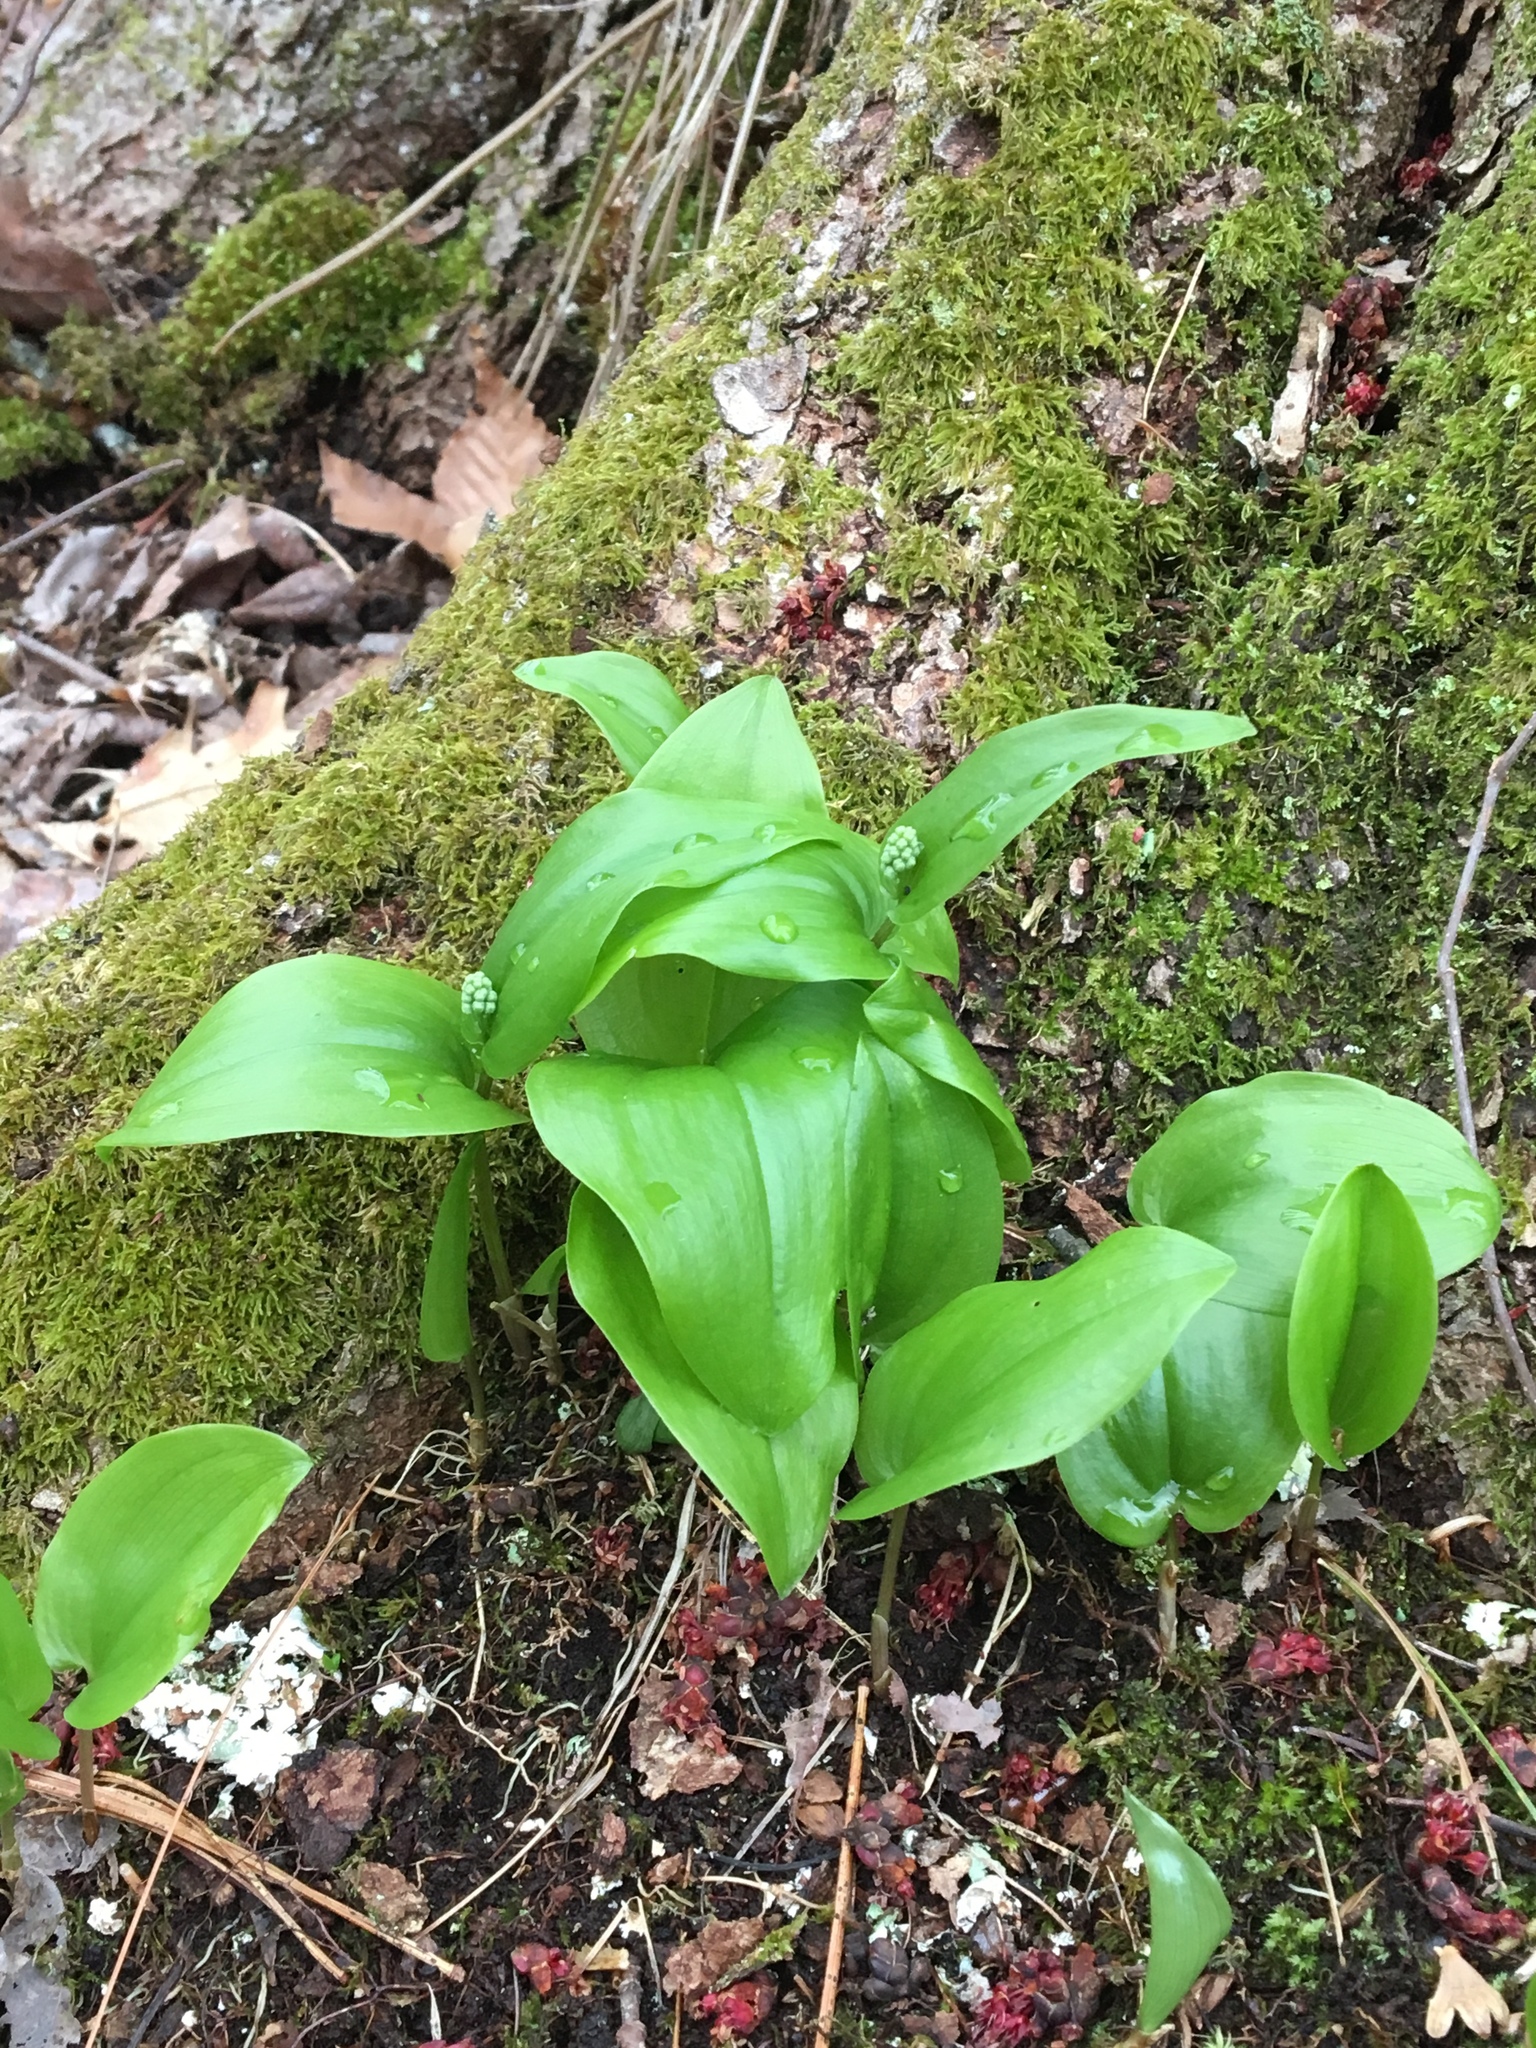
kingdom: Plantae
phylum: Tracheophyta
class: Liliopsida
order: Asparagales
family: Asparagaceae
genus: Maianthemum
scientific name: Maianthemum canadense
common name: False lily-of-the-valley
